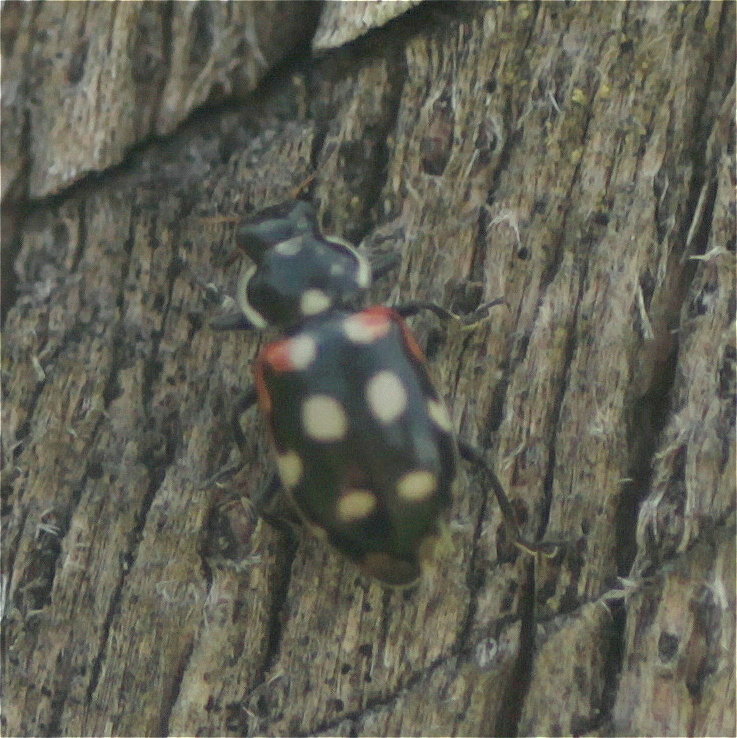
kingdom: Animalia
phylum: Arthropoda
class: Insecta
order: Coleoptera
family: Coccinellidae
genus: Eriopis
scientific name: Eriopis punicola
